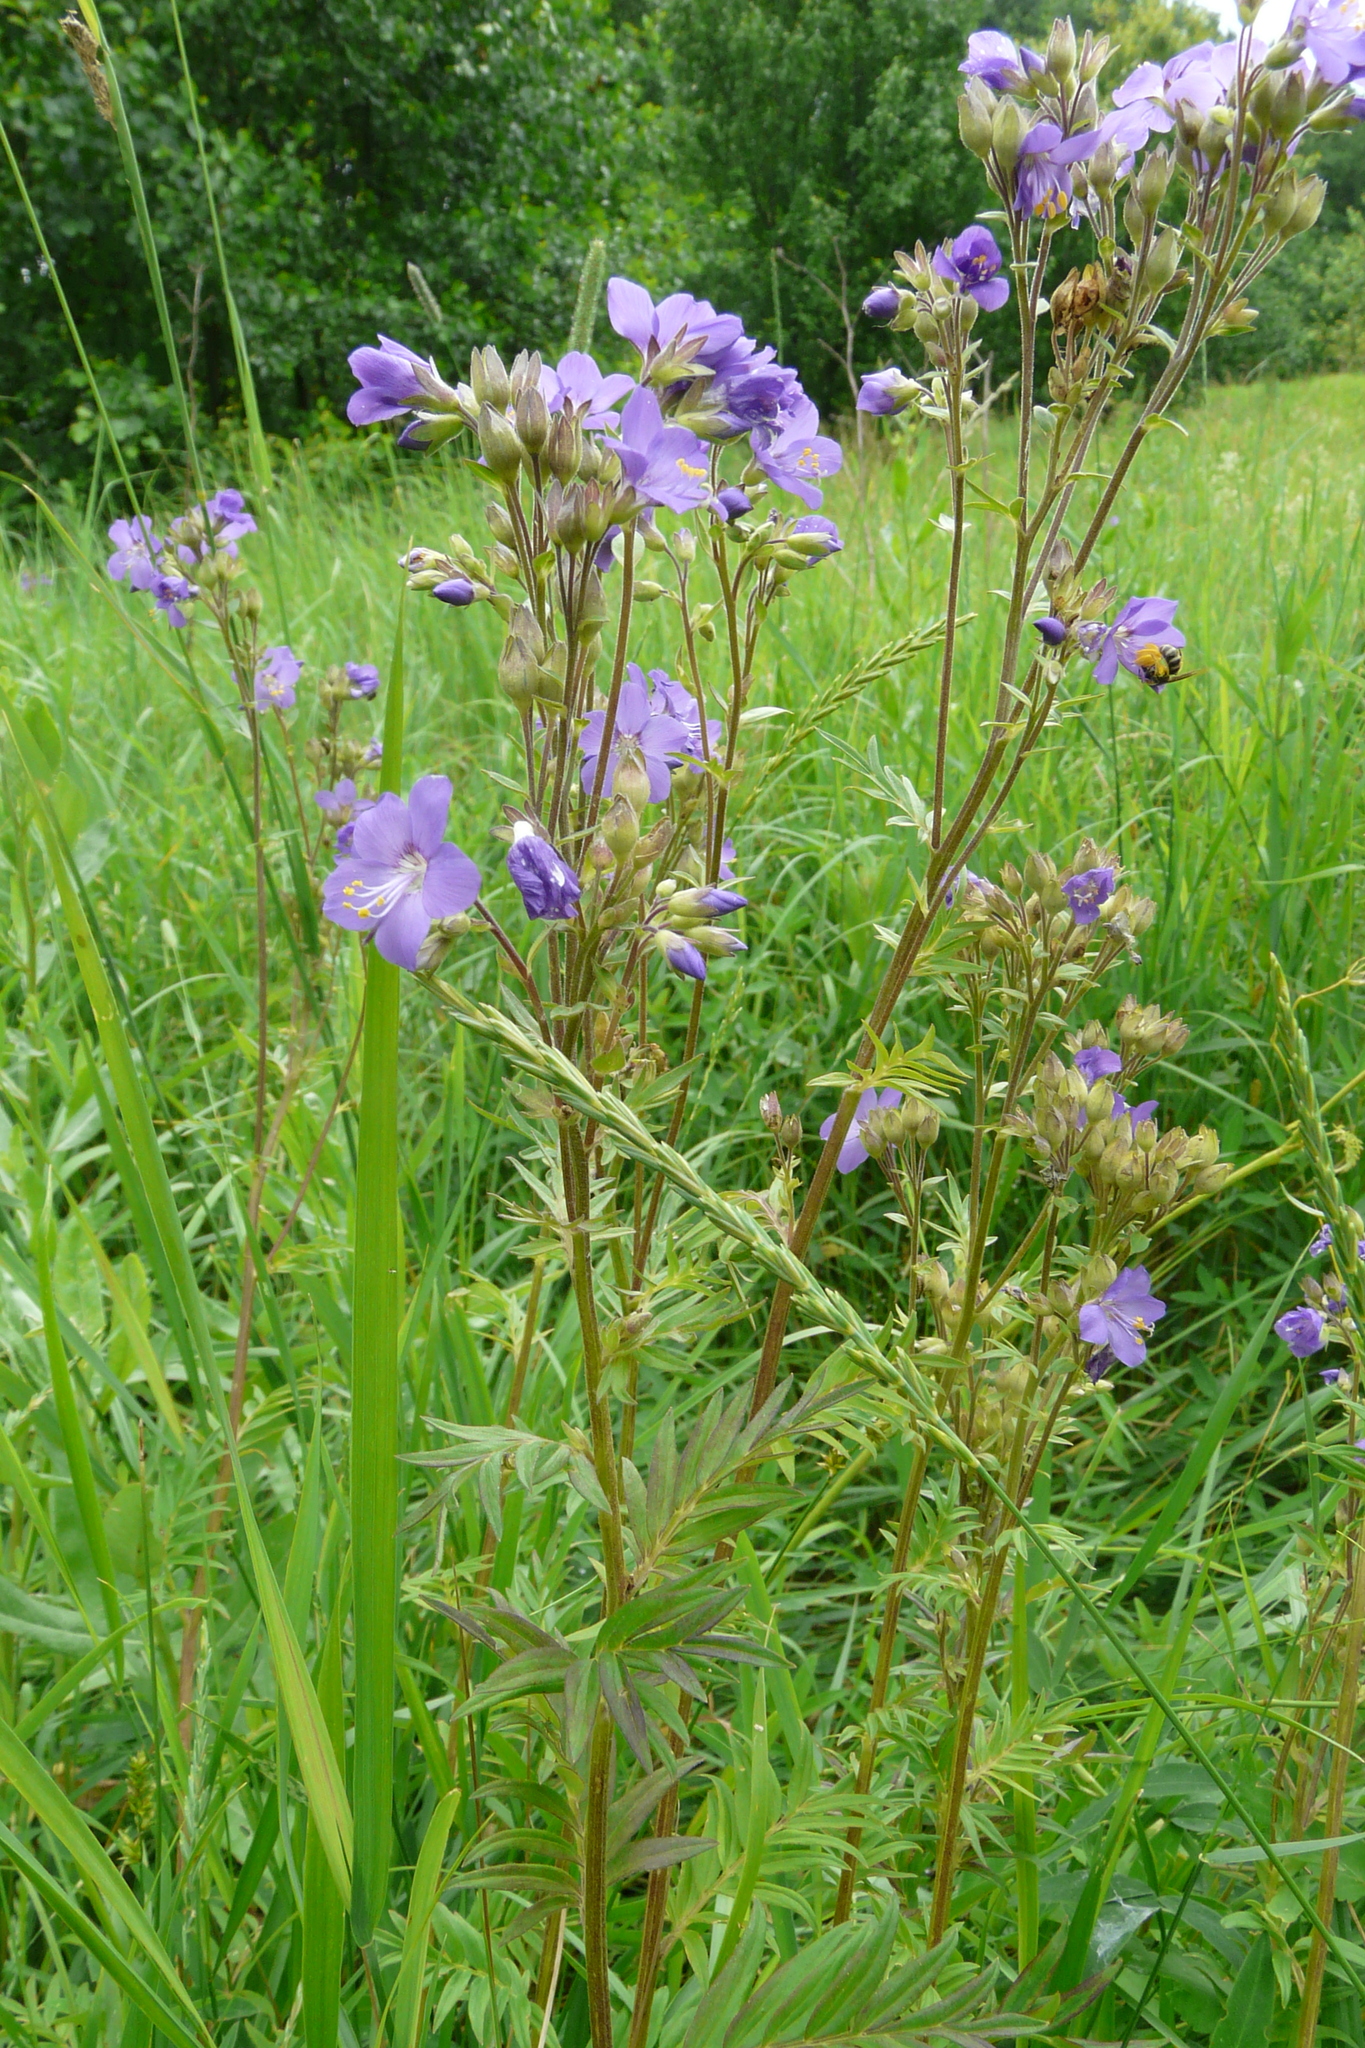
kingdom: Plantae
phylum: Tracheophyta
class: Magnoliopsida
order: Ericales
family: Polemoniaceae
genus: Polemonium
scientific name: Polemonium caeruleum
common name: Jacob's-ladder
